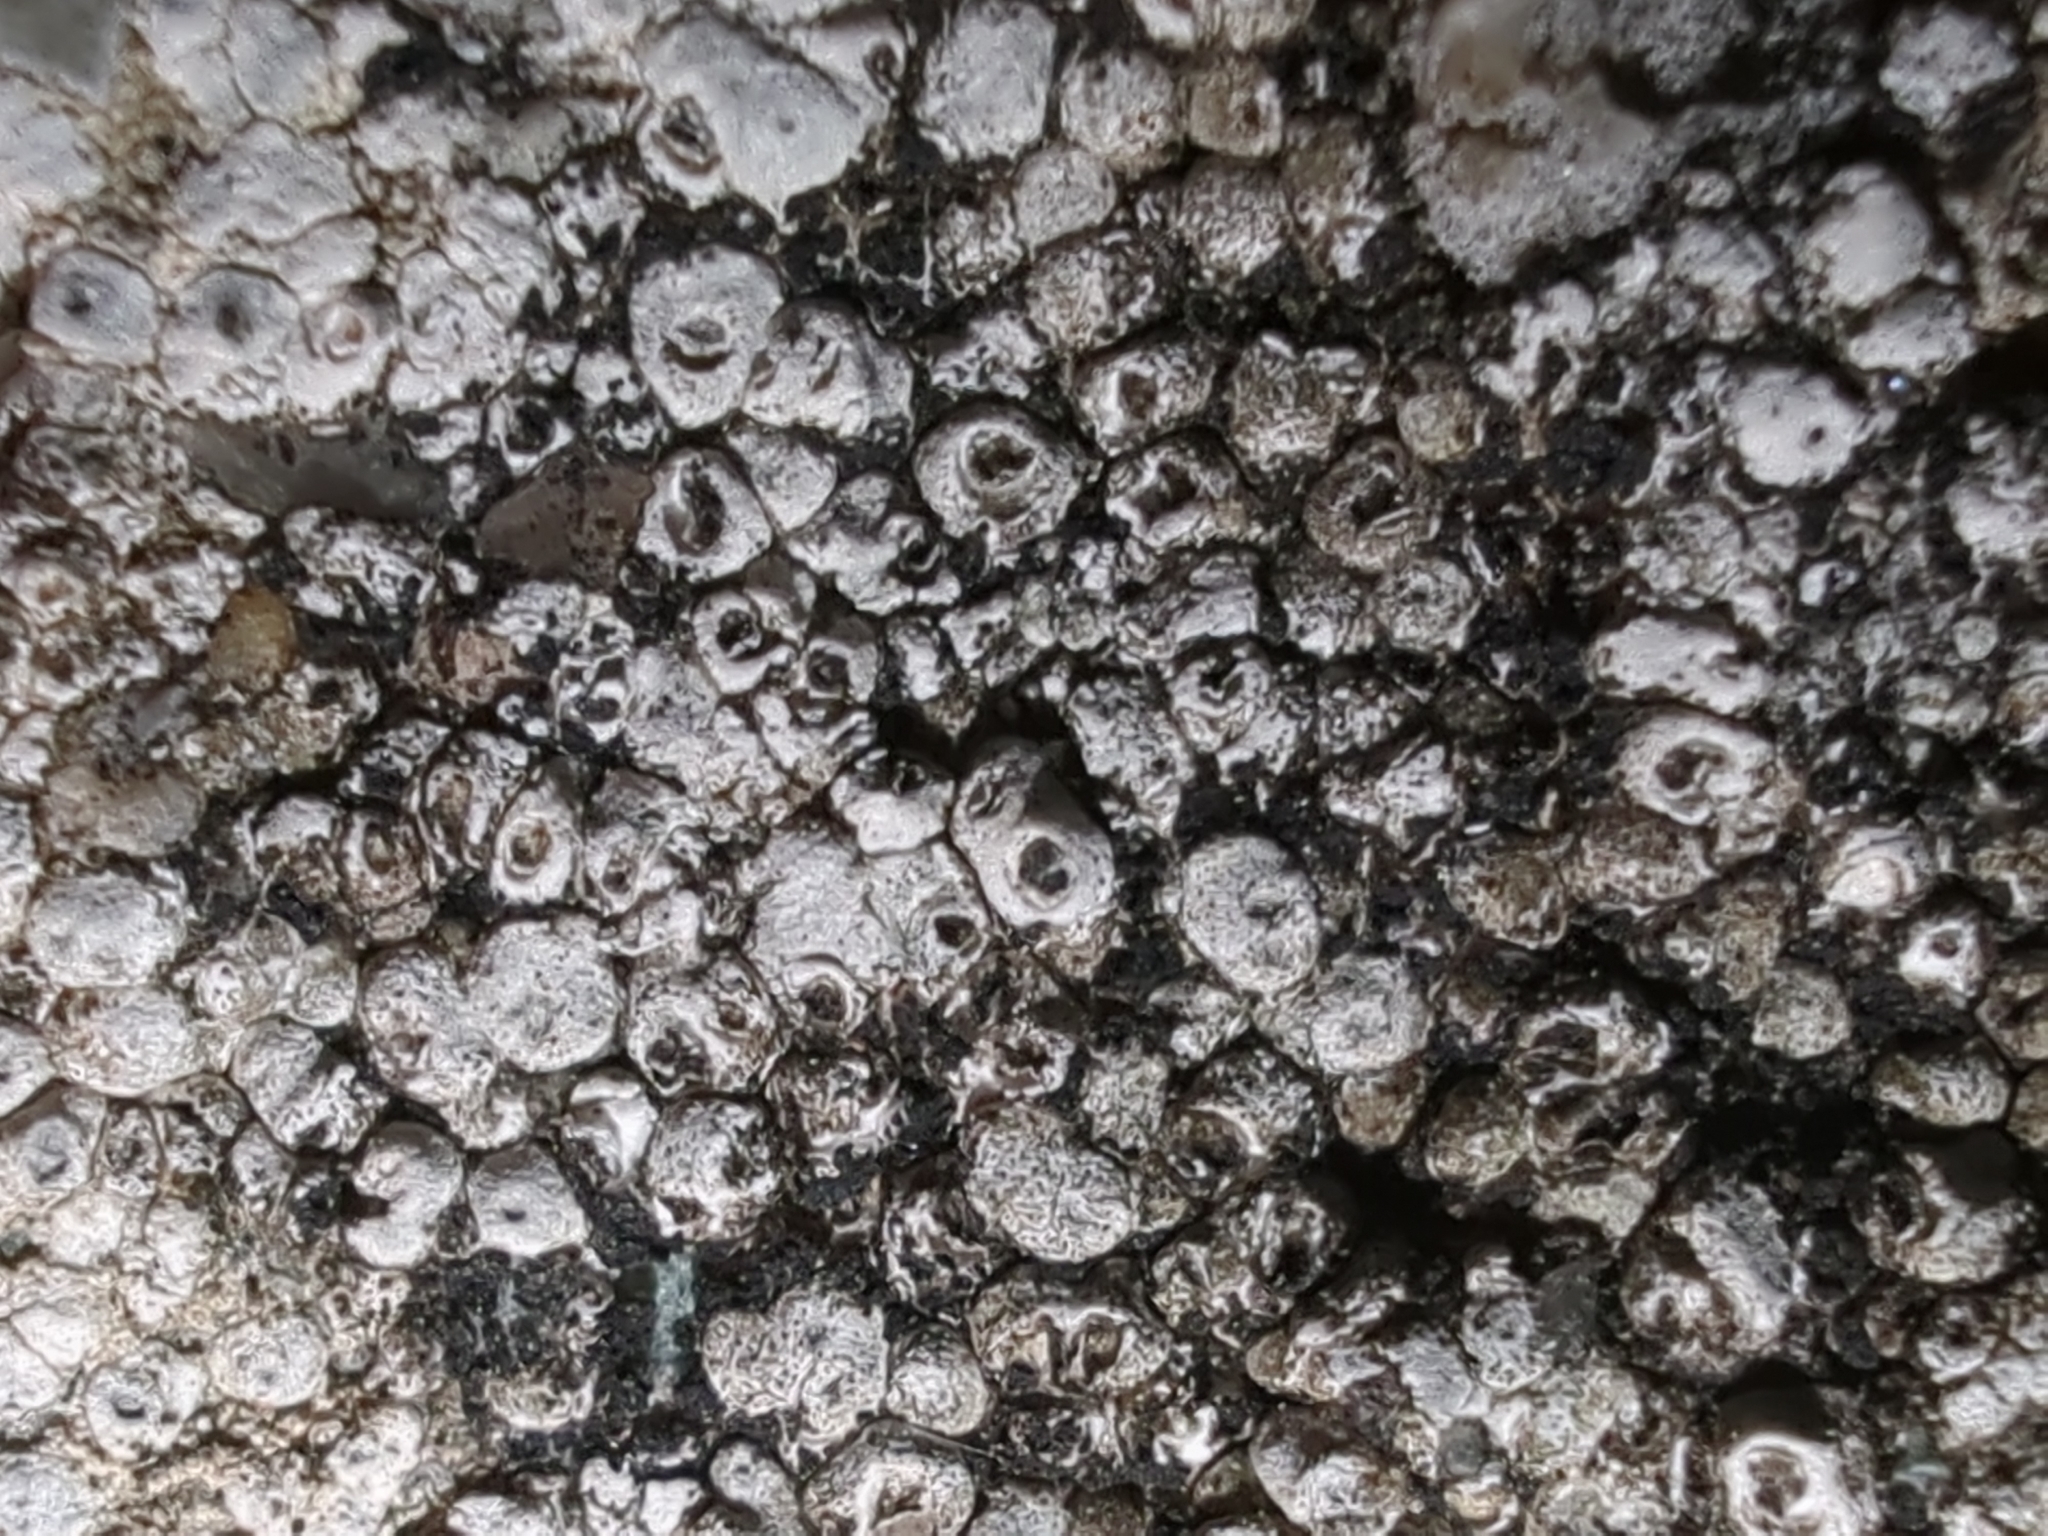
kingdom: Fungi
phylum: Ascomycota
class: Lecanoromycetes
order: Pertusariales
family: Megasporaceae
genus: Circinaria
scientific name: Circinaria contorta
